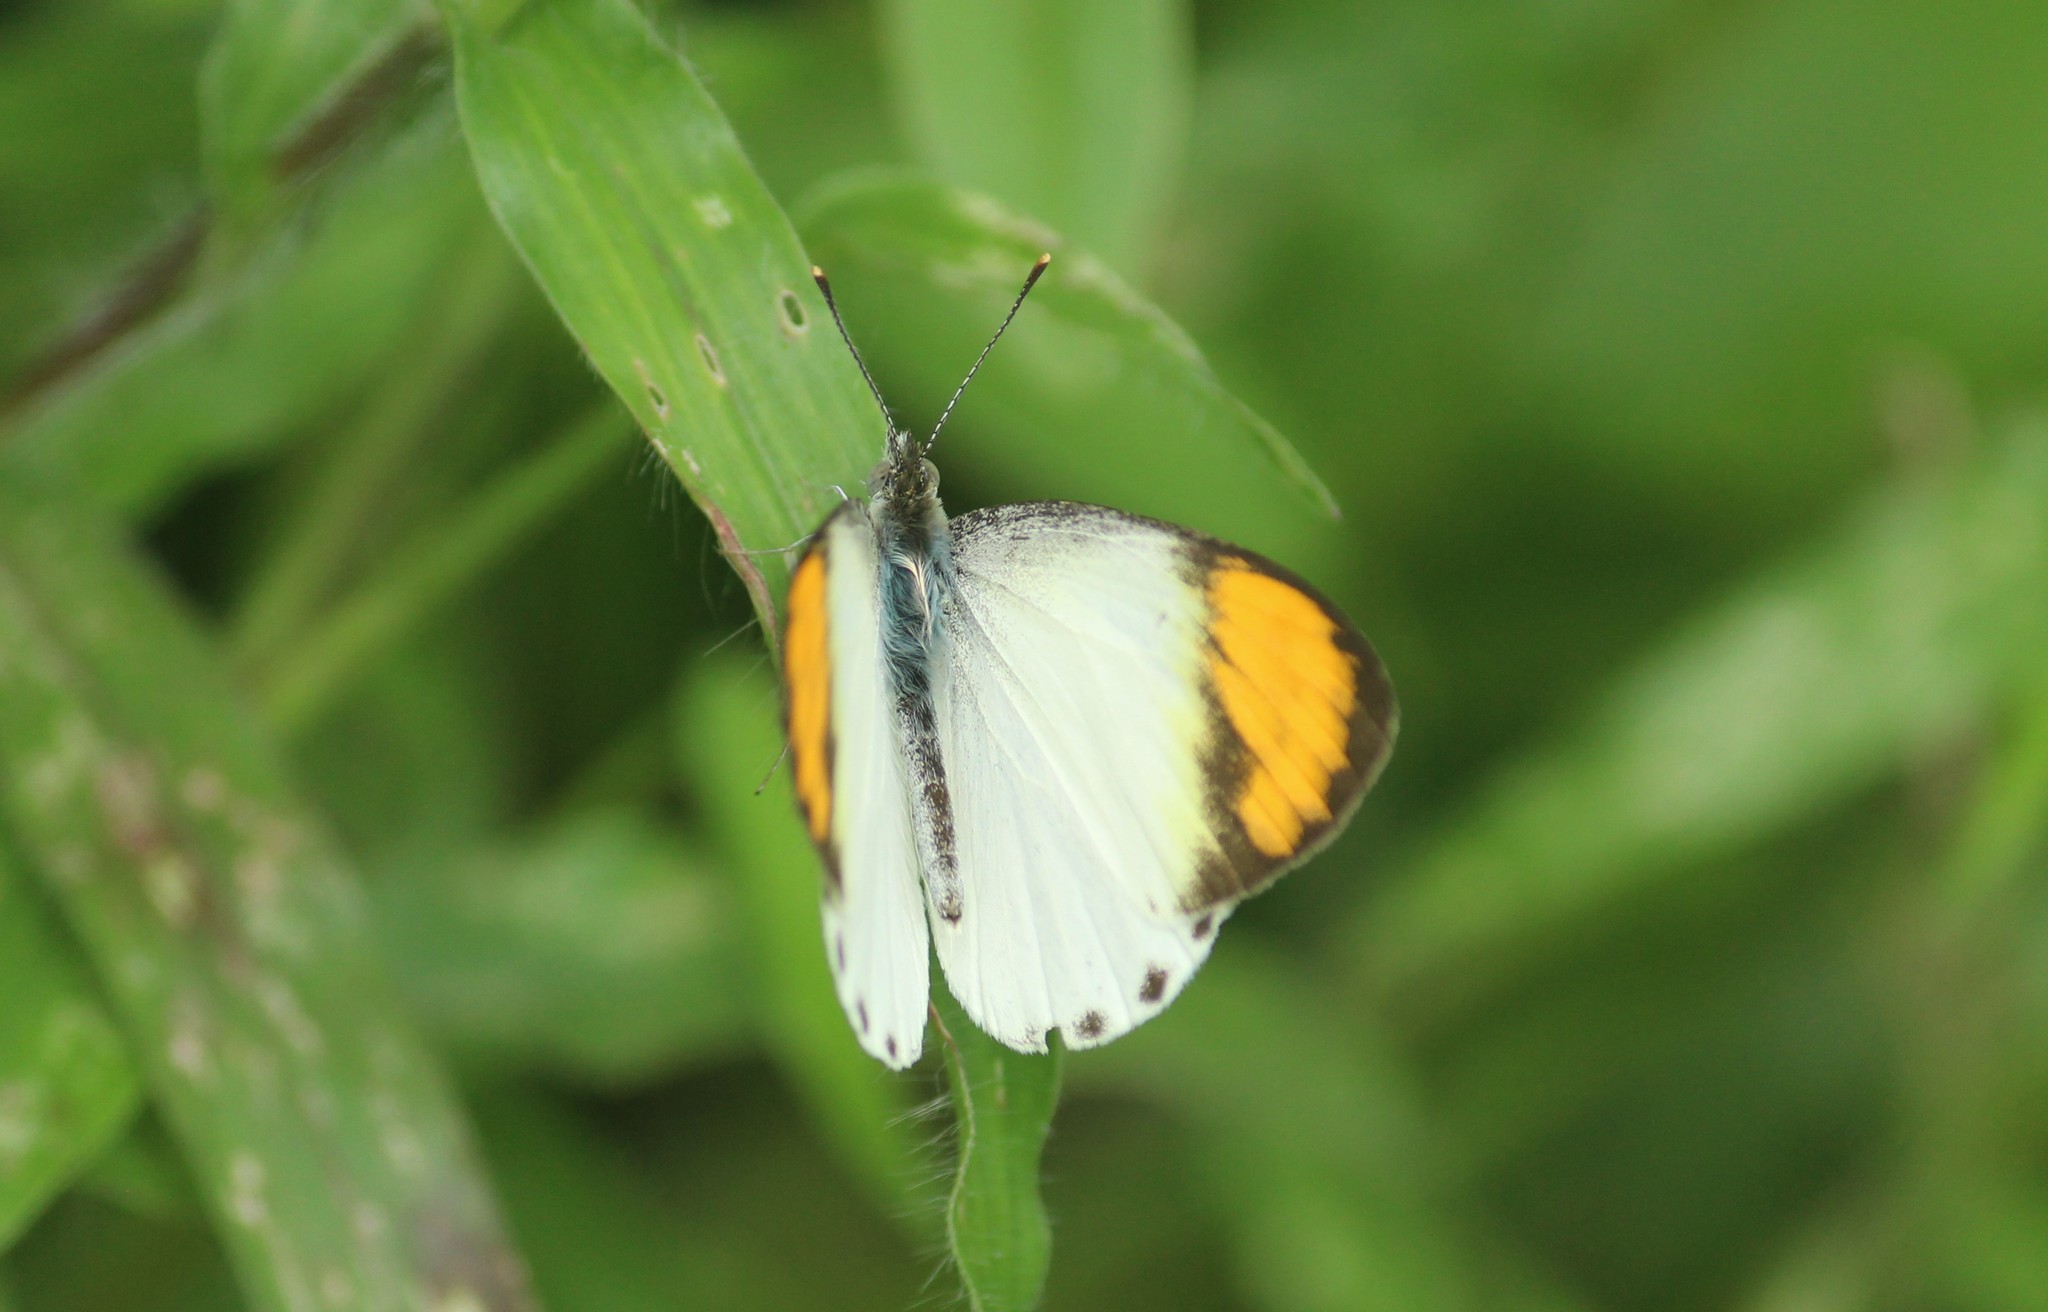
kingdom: Animalia
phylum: Arthropoda
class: Insecta
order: Lepidoptera
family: Pieridae
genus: Colotis
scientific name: Colotis aurora
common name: Plain orange-tip
